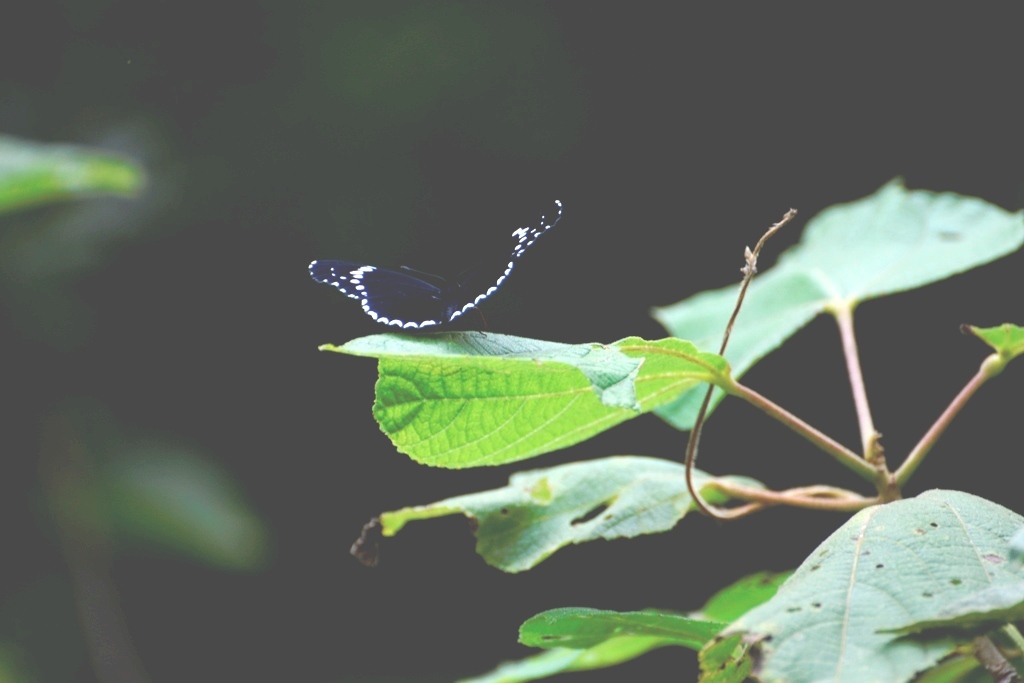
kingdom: Animalia
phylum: Arthropoda
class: Insecta
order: Lepidoptera
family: Nymphalidae
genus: Chlosyne
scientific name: Chlosyne hippodrome
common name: Simple patch
